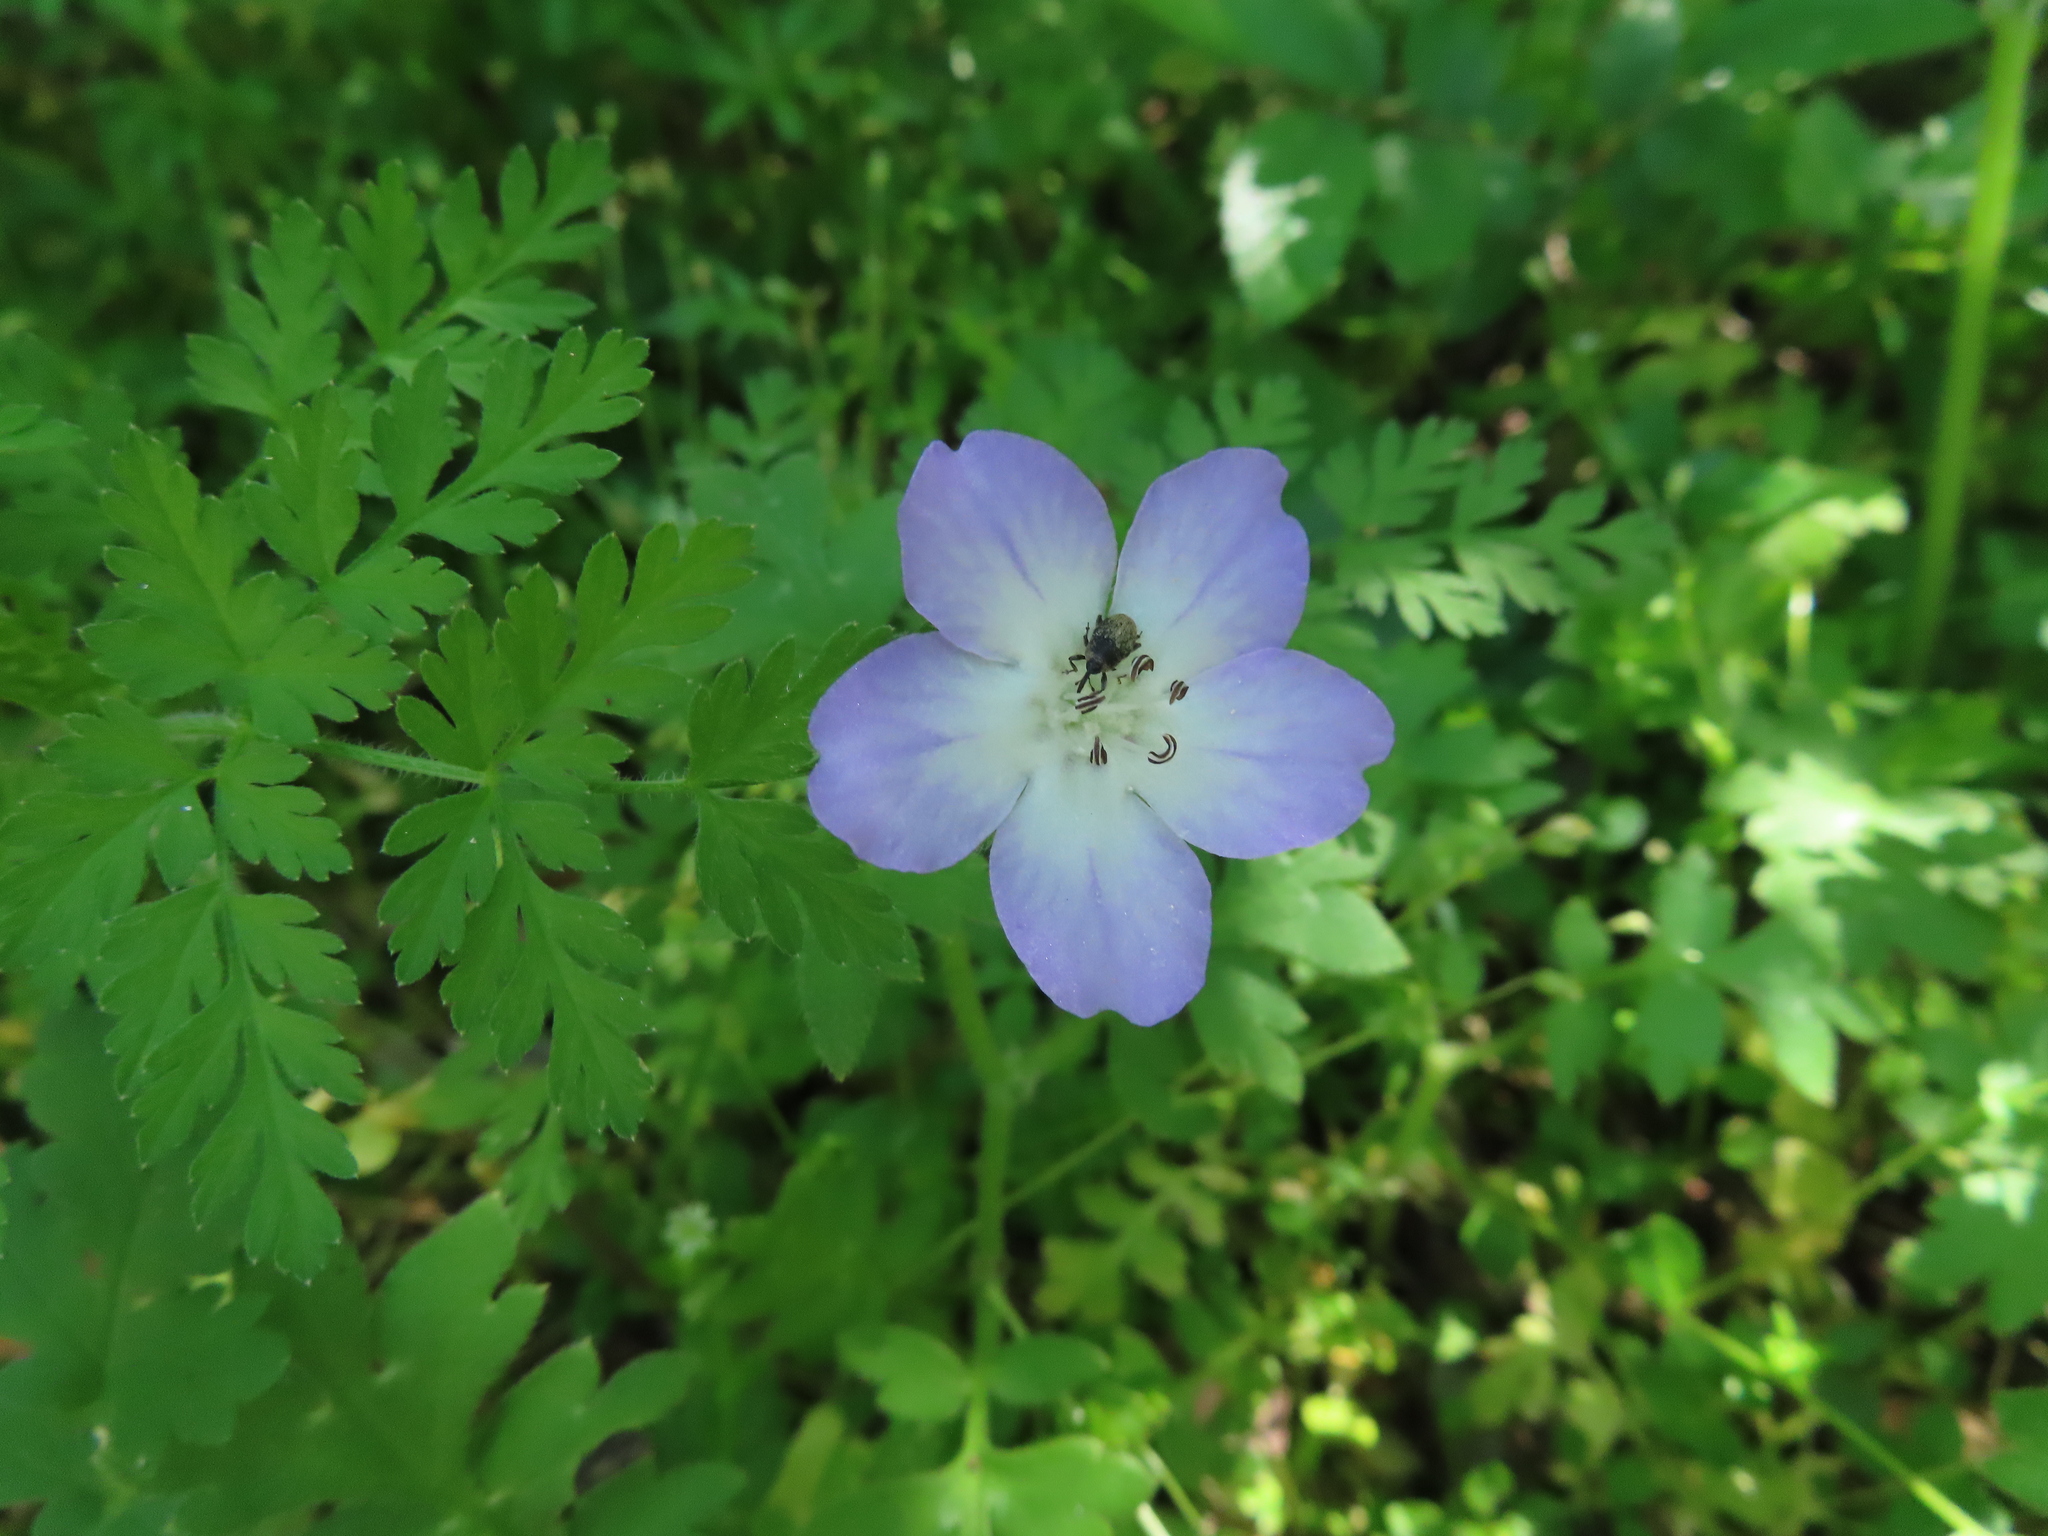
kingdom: Plantae
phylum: Tracheophyta
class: Magnoliopsida
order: Boraginales
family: Hydrophyllaceae
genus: Nemophila
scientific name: Nemophila phacelioides
